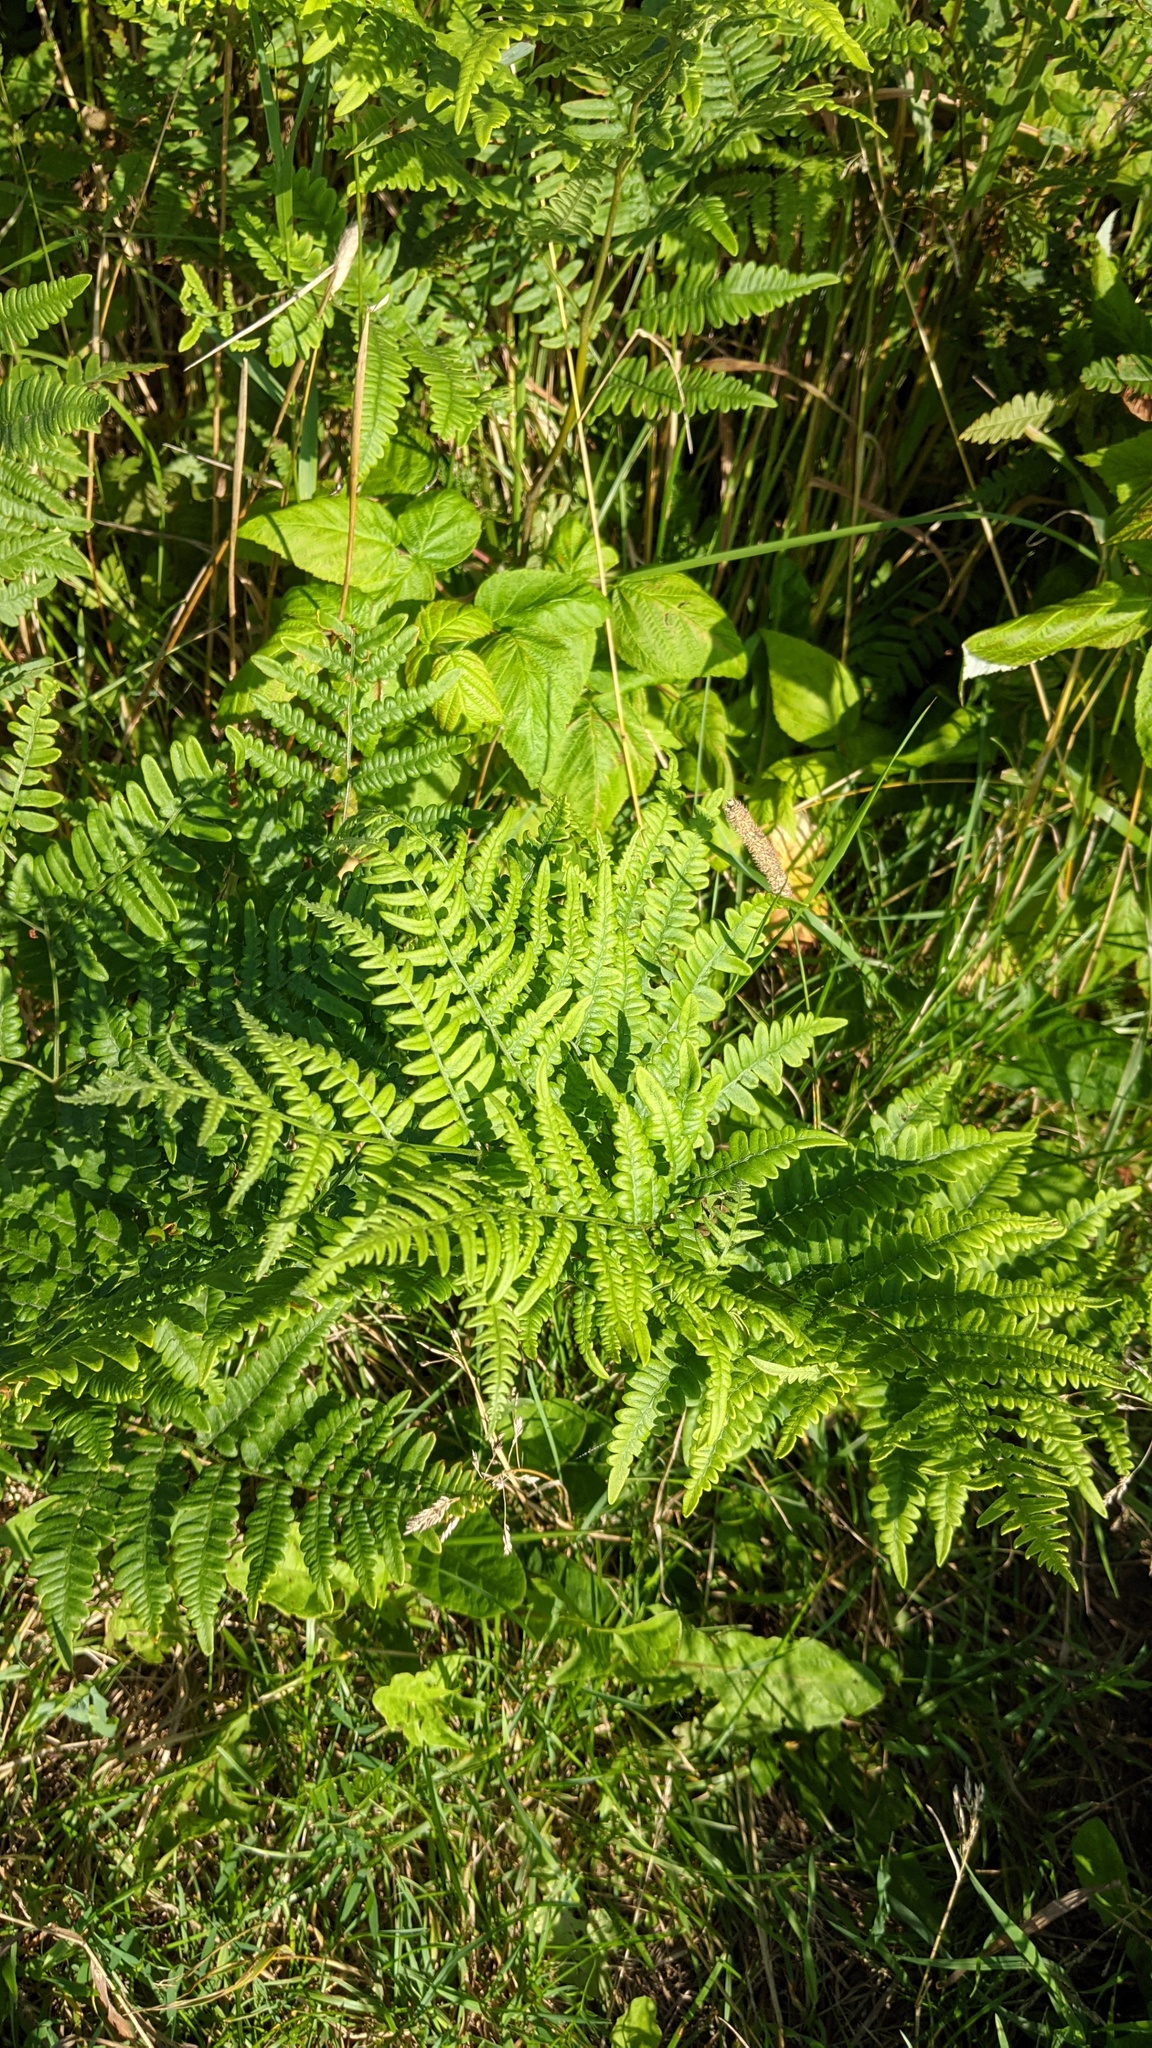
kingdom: Plantae
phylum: Tracheophyta
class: Polypodiopsida
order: Polypodiales
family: Dennstaedtiaceae
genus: Pteridium
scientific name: Pteridium aquilinum
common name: Bracken
